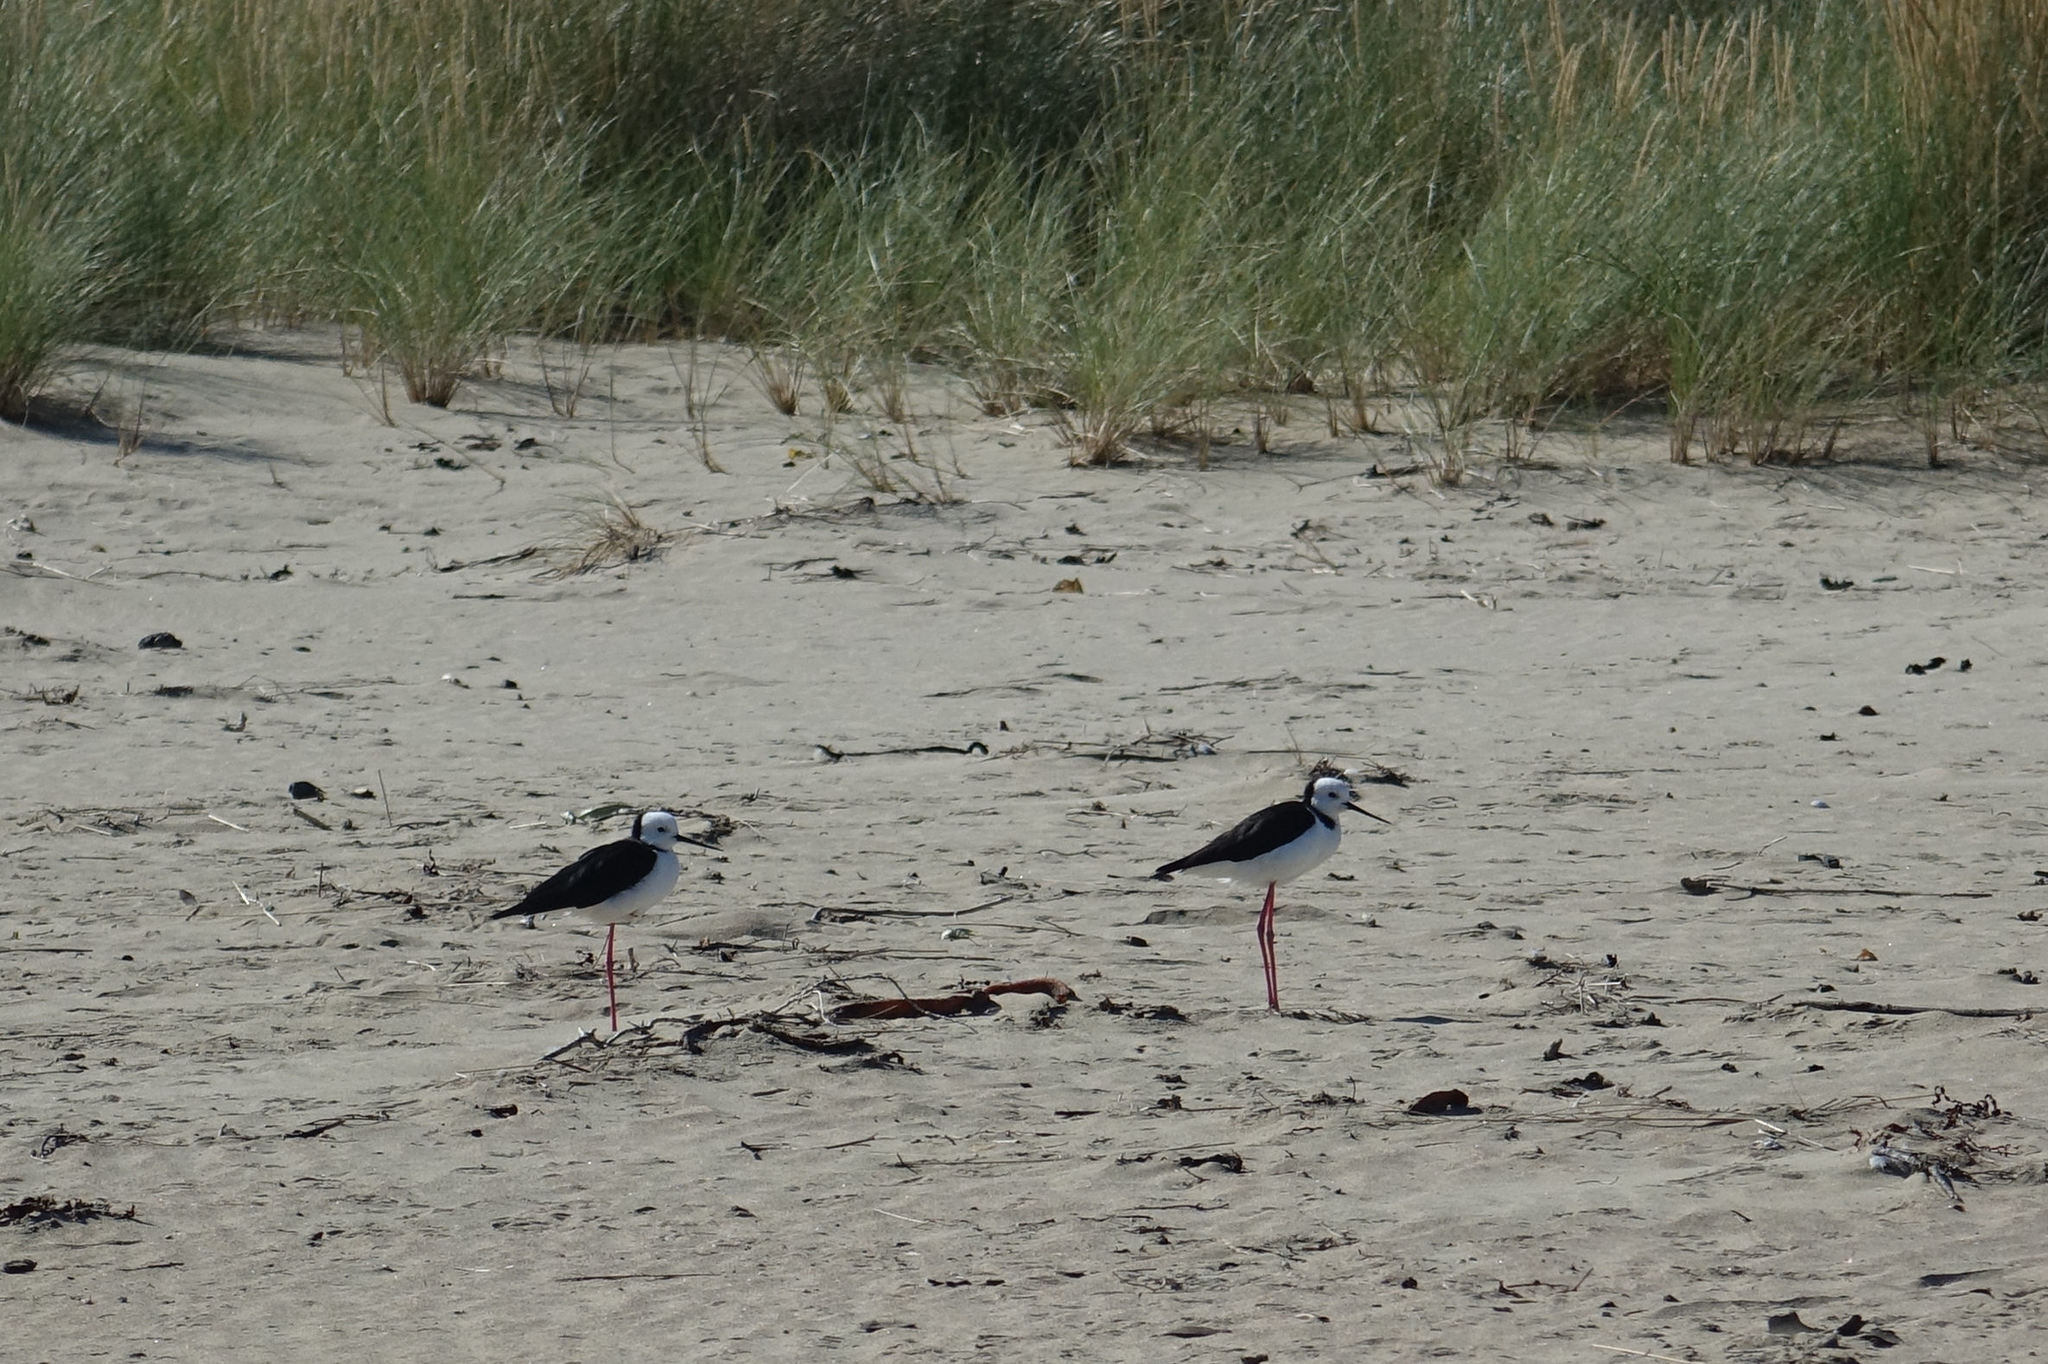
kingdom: Animalia
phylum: Chordata
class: Aves
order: Charadriiformes
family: Recurvirostridae
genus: Himantopus
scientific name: Himantopus leucocephalus
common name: White-headed stilt
